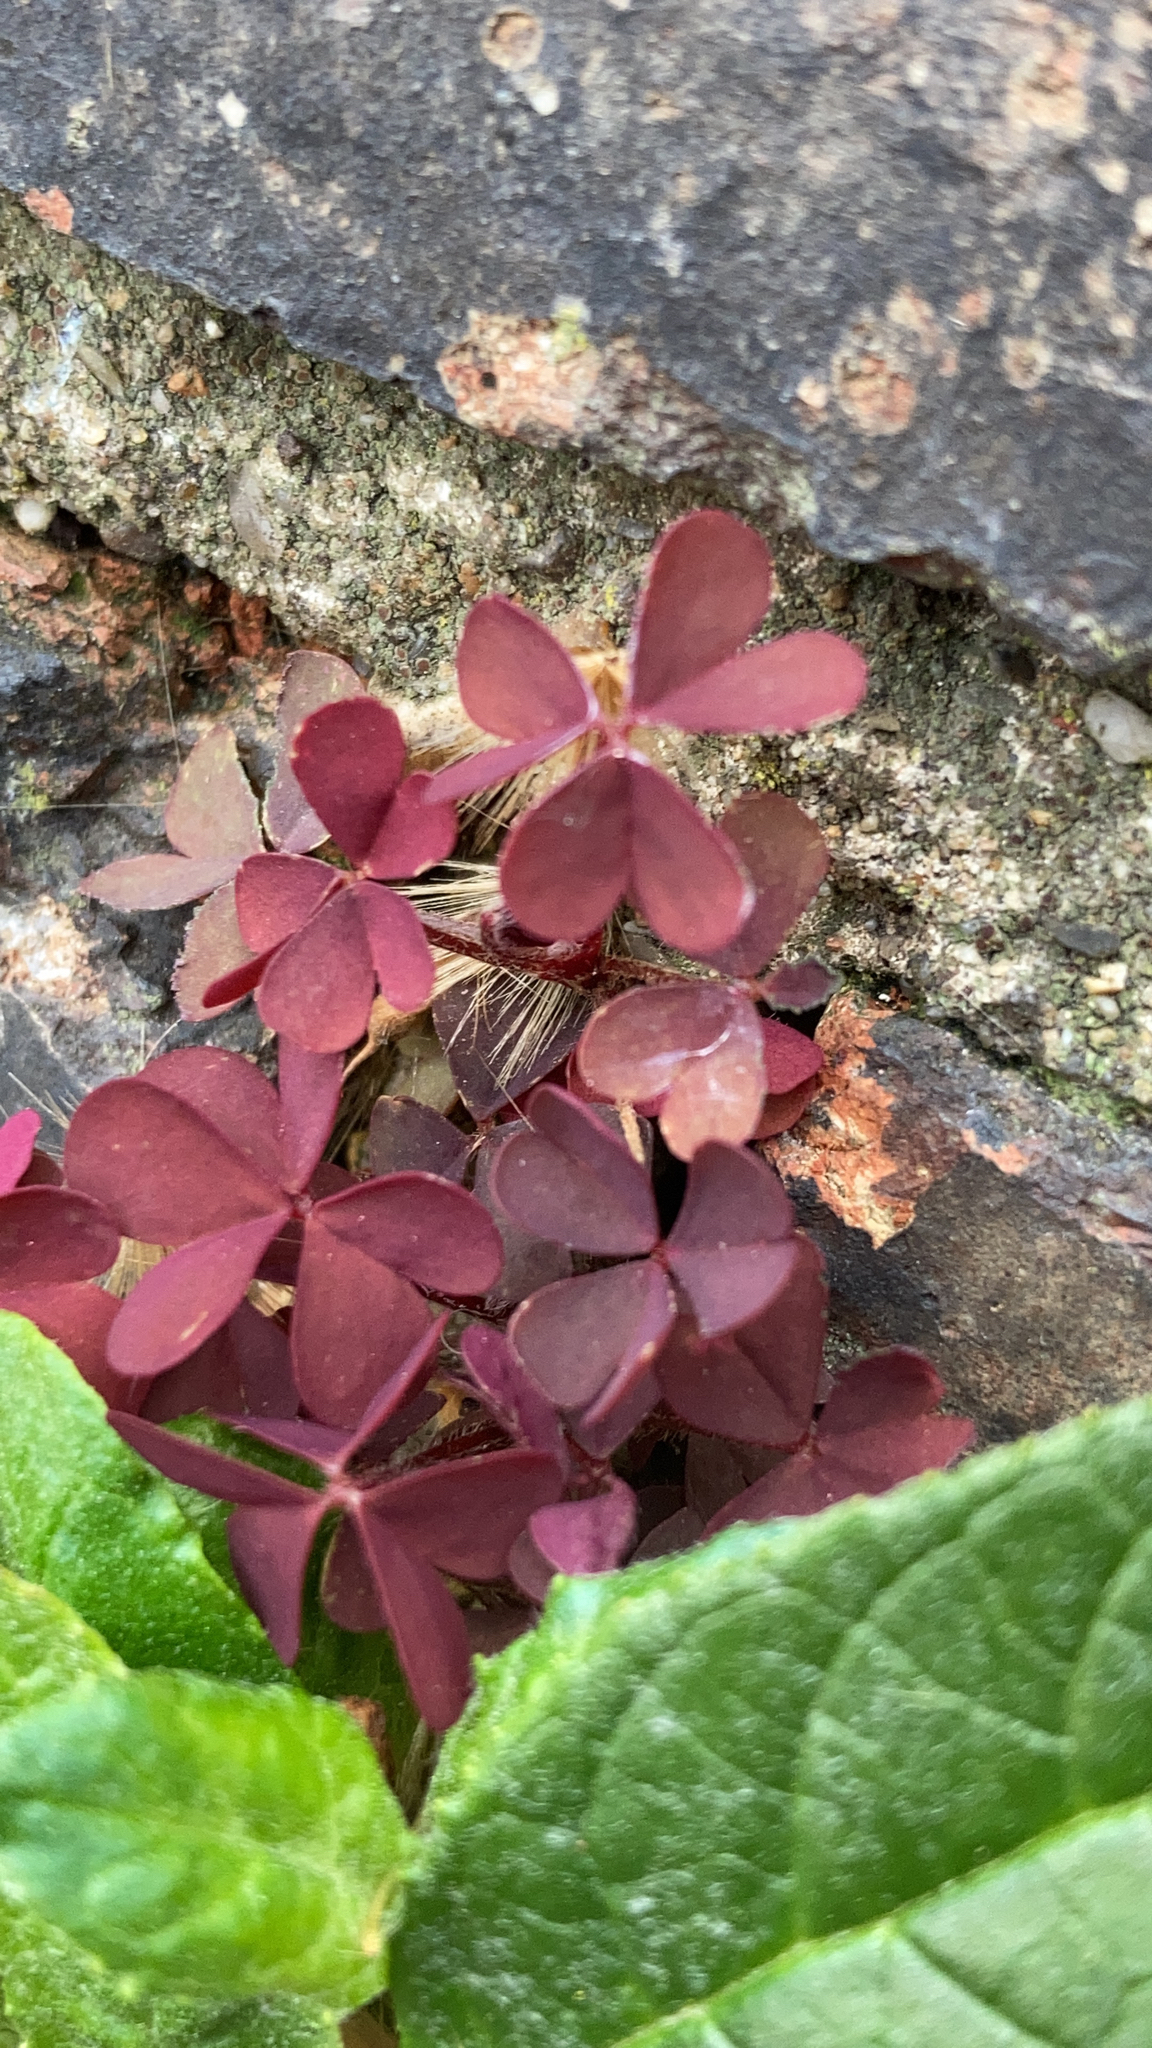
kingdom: Plantae
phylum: Tracheophyta
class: Magnoliopsida
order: Oxalidales
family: Oxalidaceae
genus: Oxalis
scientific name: Oxalis corniculata
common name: Procumbent yellow-sorrel
